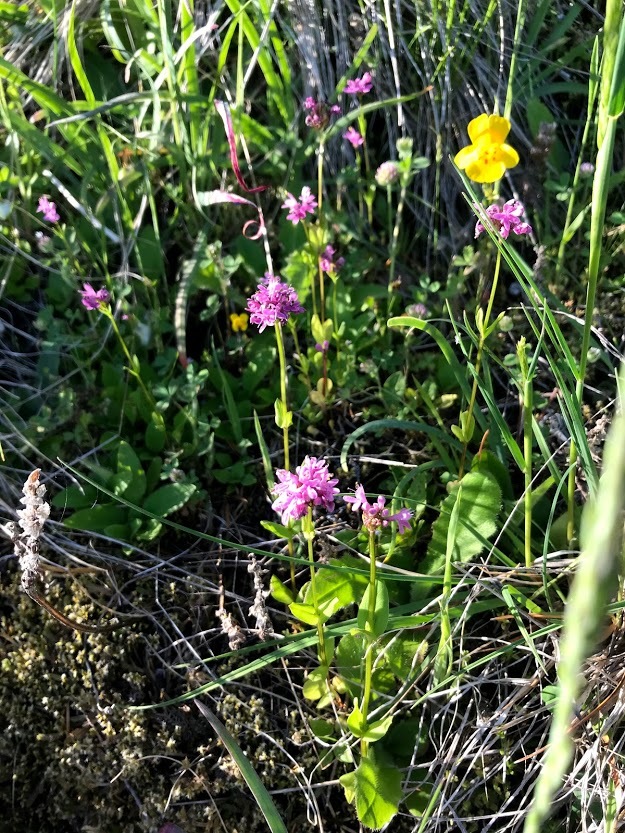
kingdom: Plantae
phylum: Tracheophyta
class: Magnoliopsida
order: Dipsacales
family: Caprifoliaceae
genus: Plectritis
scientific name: Plectritis congesta
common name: Pink plectritis
